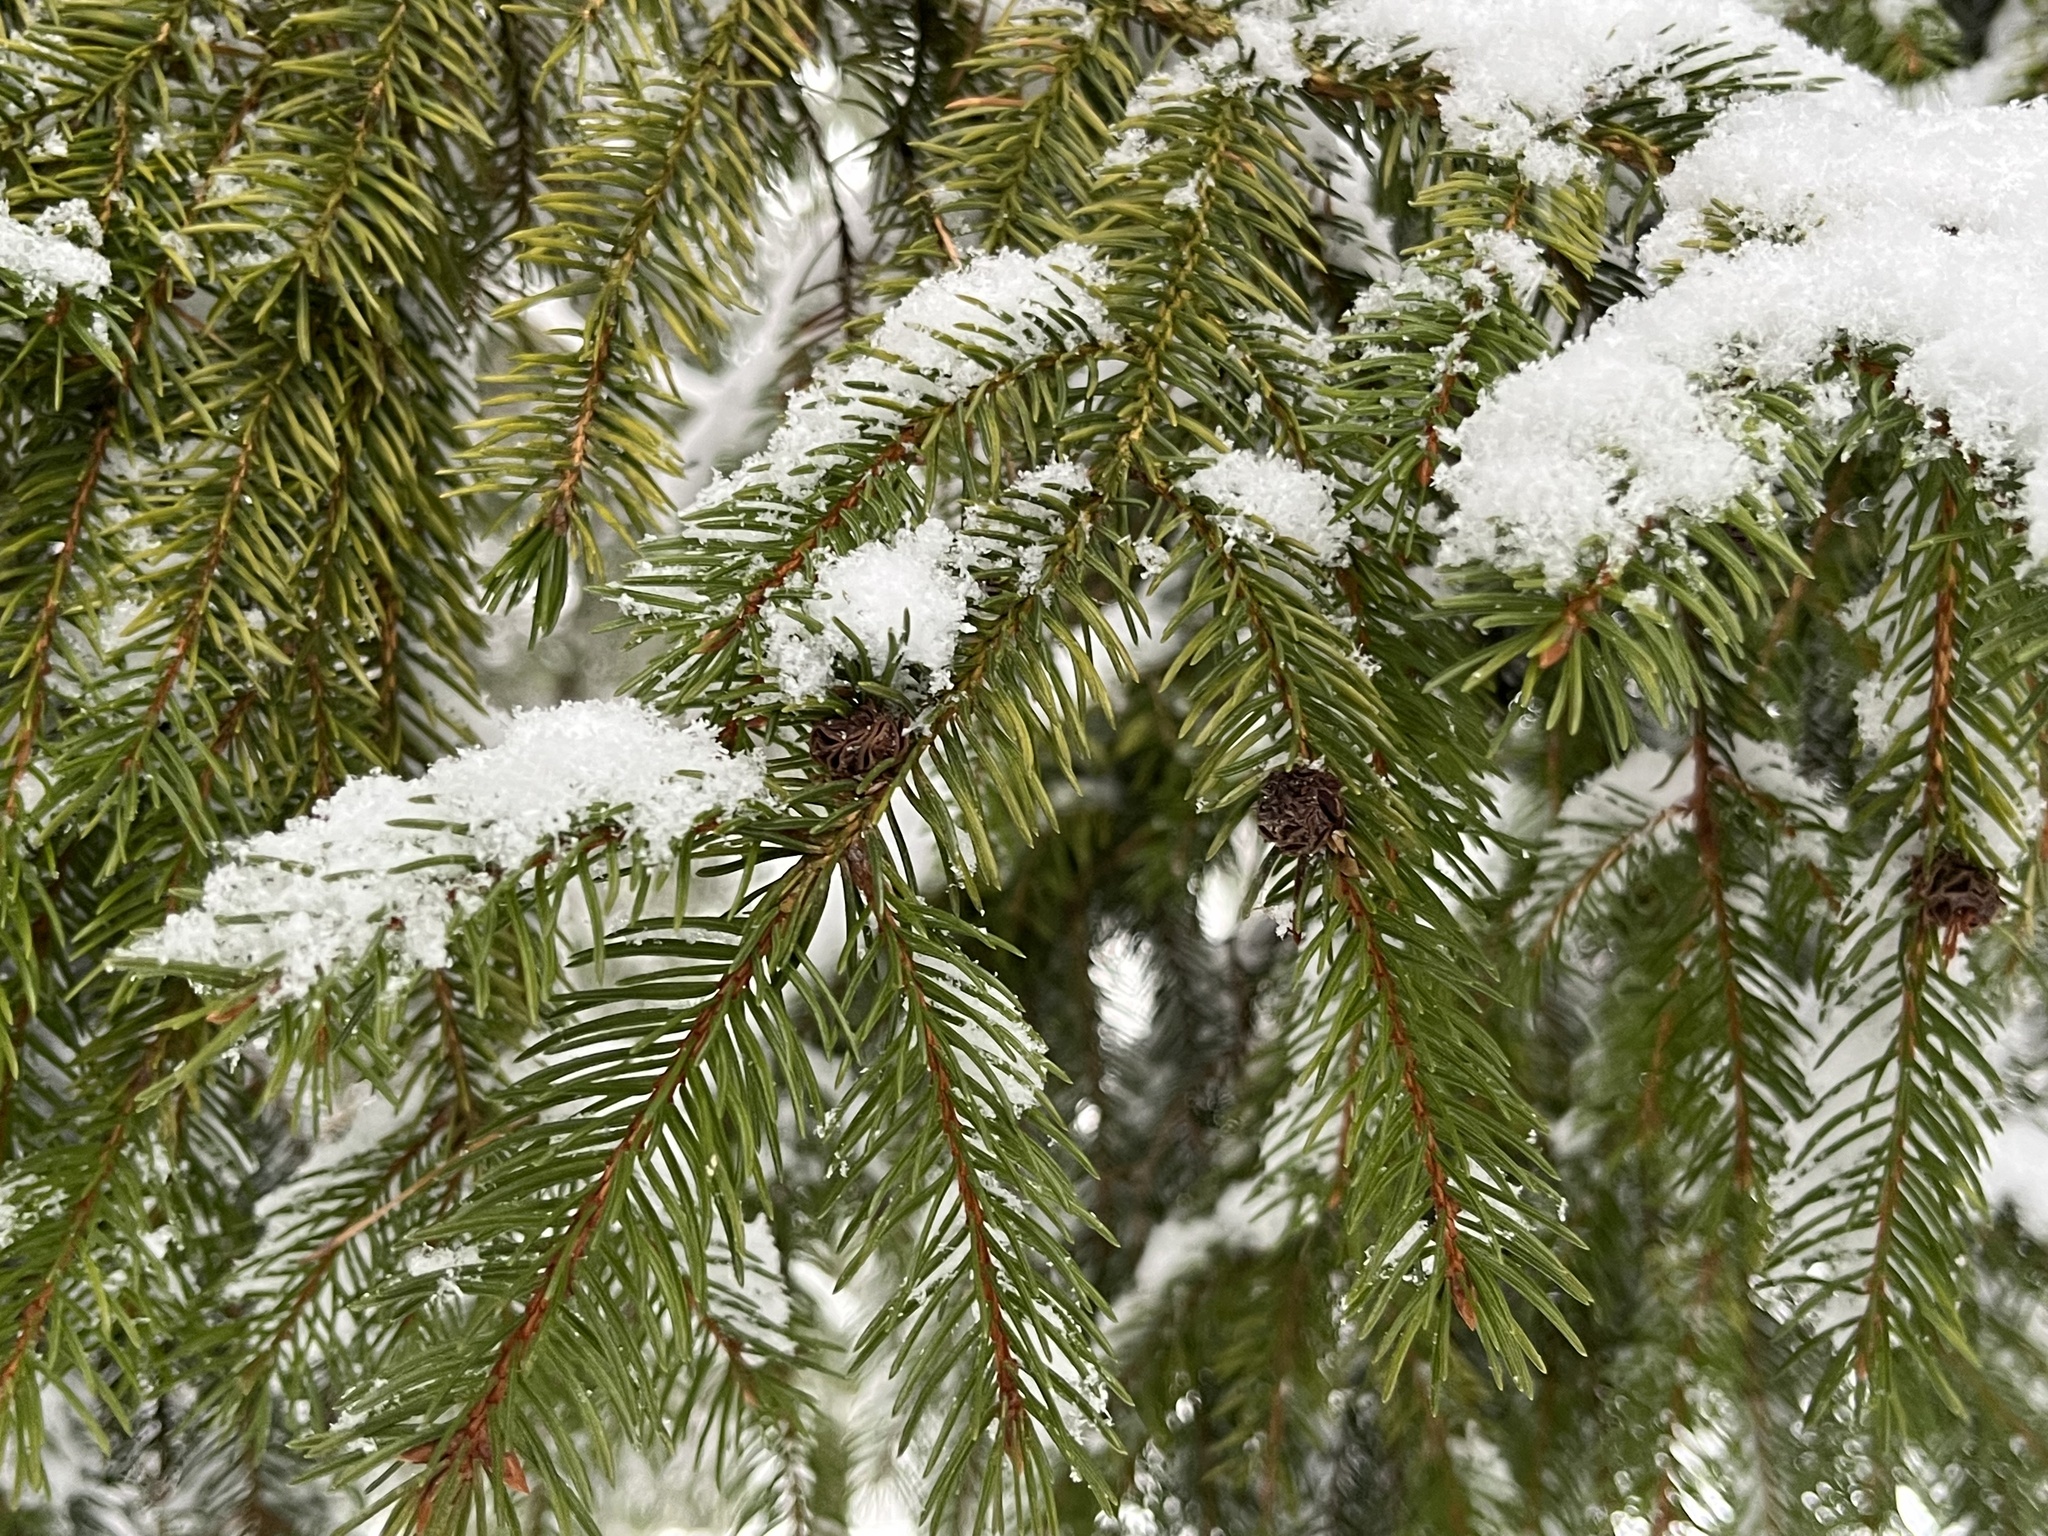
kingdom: Plantae
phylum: Tracheophyta
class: Pinopsida
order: Pinales
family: Pinaceae
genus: Picea
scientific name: Picea abies
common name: Norway spruce
